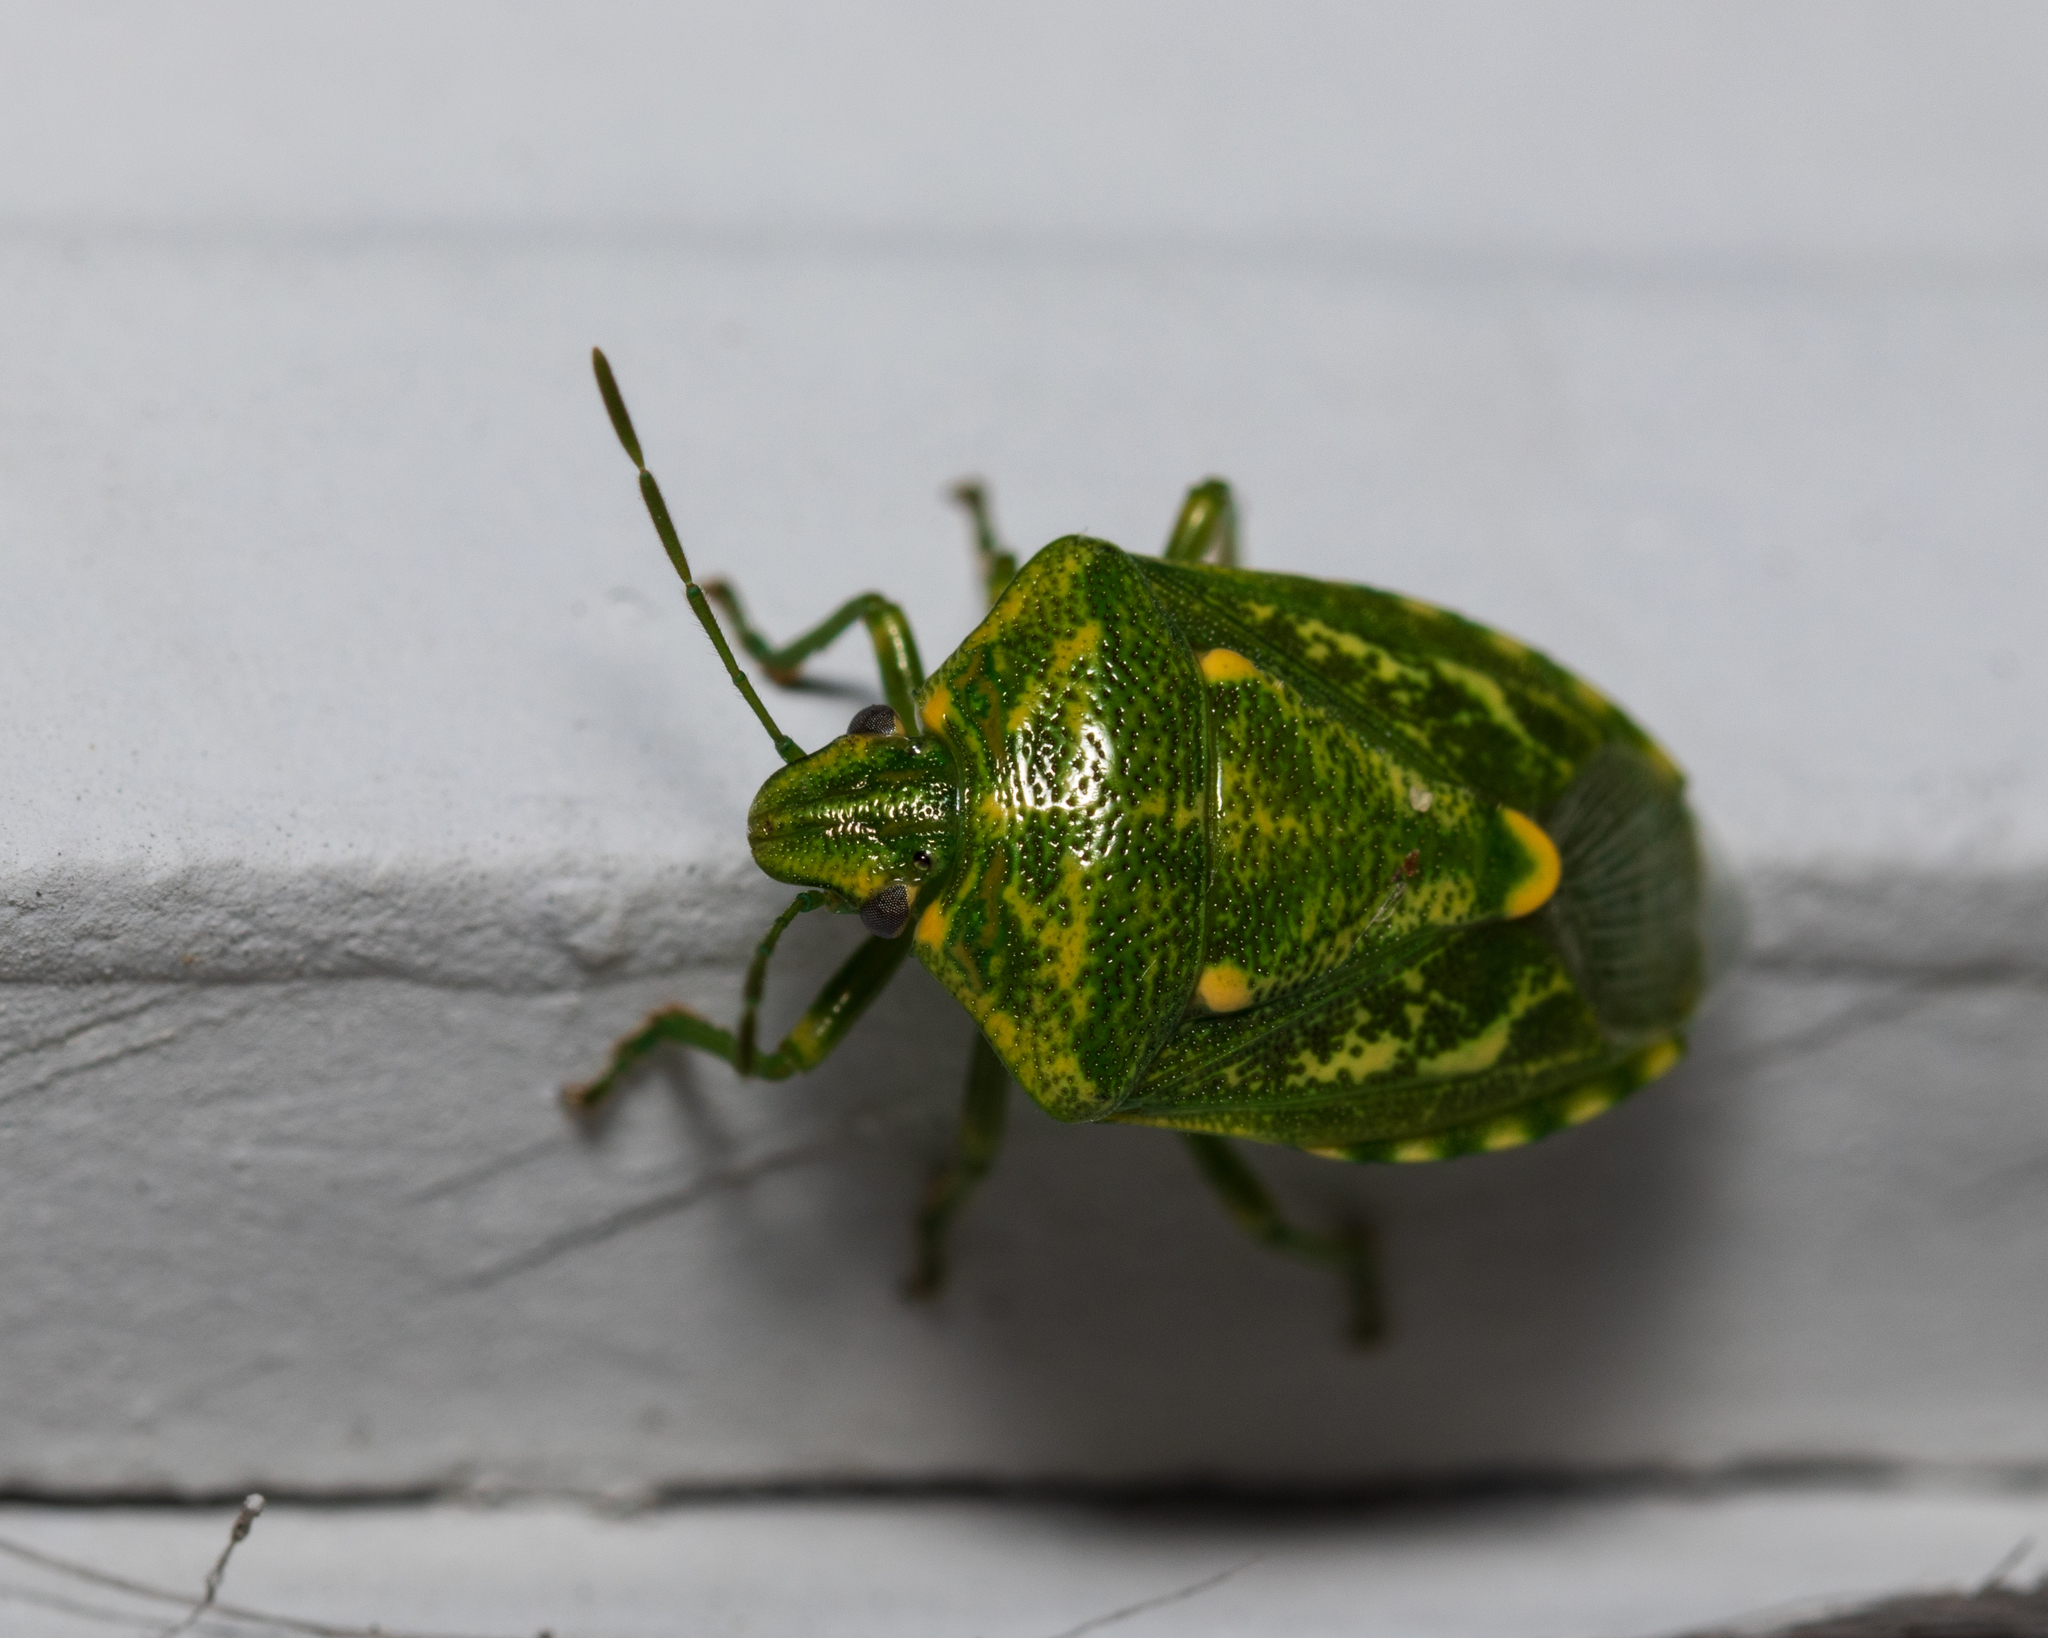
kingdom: Animalia
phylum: Arthropoda
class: Insecta
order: Hemiptera
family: Pentatomidae
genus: Banasa
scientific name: Banasa euchlora
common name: Cedar berry bug
